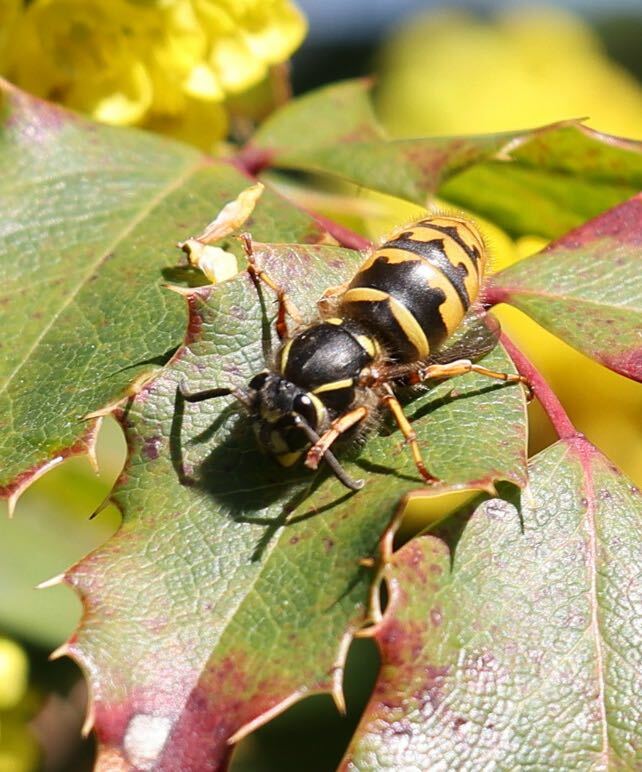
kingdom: Animalia
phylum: Arthropoda
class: Insecta
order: Hymenoptera
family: Vespidae
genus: Vespula
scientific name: Vespula vulgaris
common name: Common wasp
